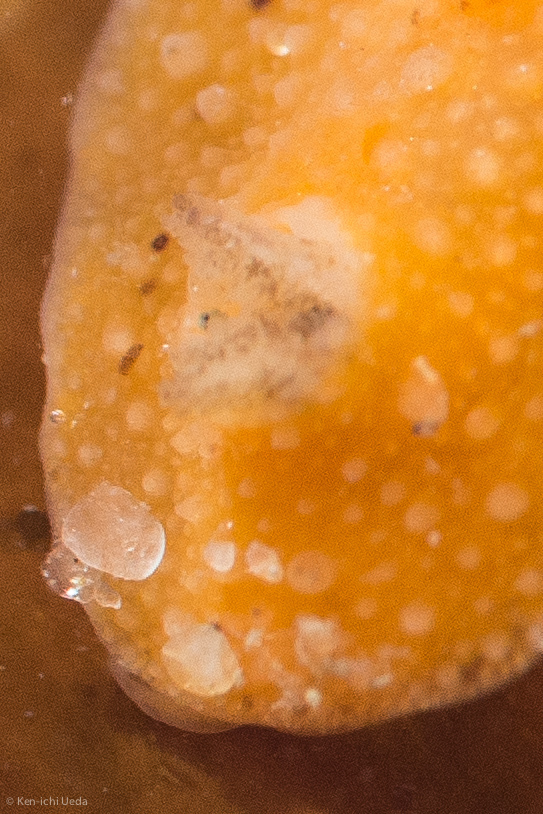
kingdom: Animalia
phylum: Mollusca
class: Gastropoda
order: Nudibranchia
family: Discodorididae
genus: Thordisa
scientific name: Thordisa verrucosa
